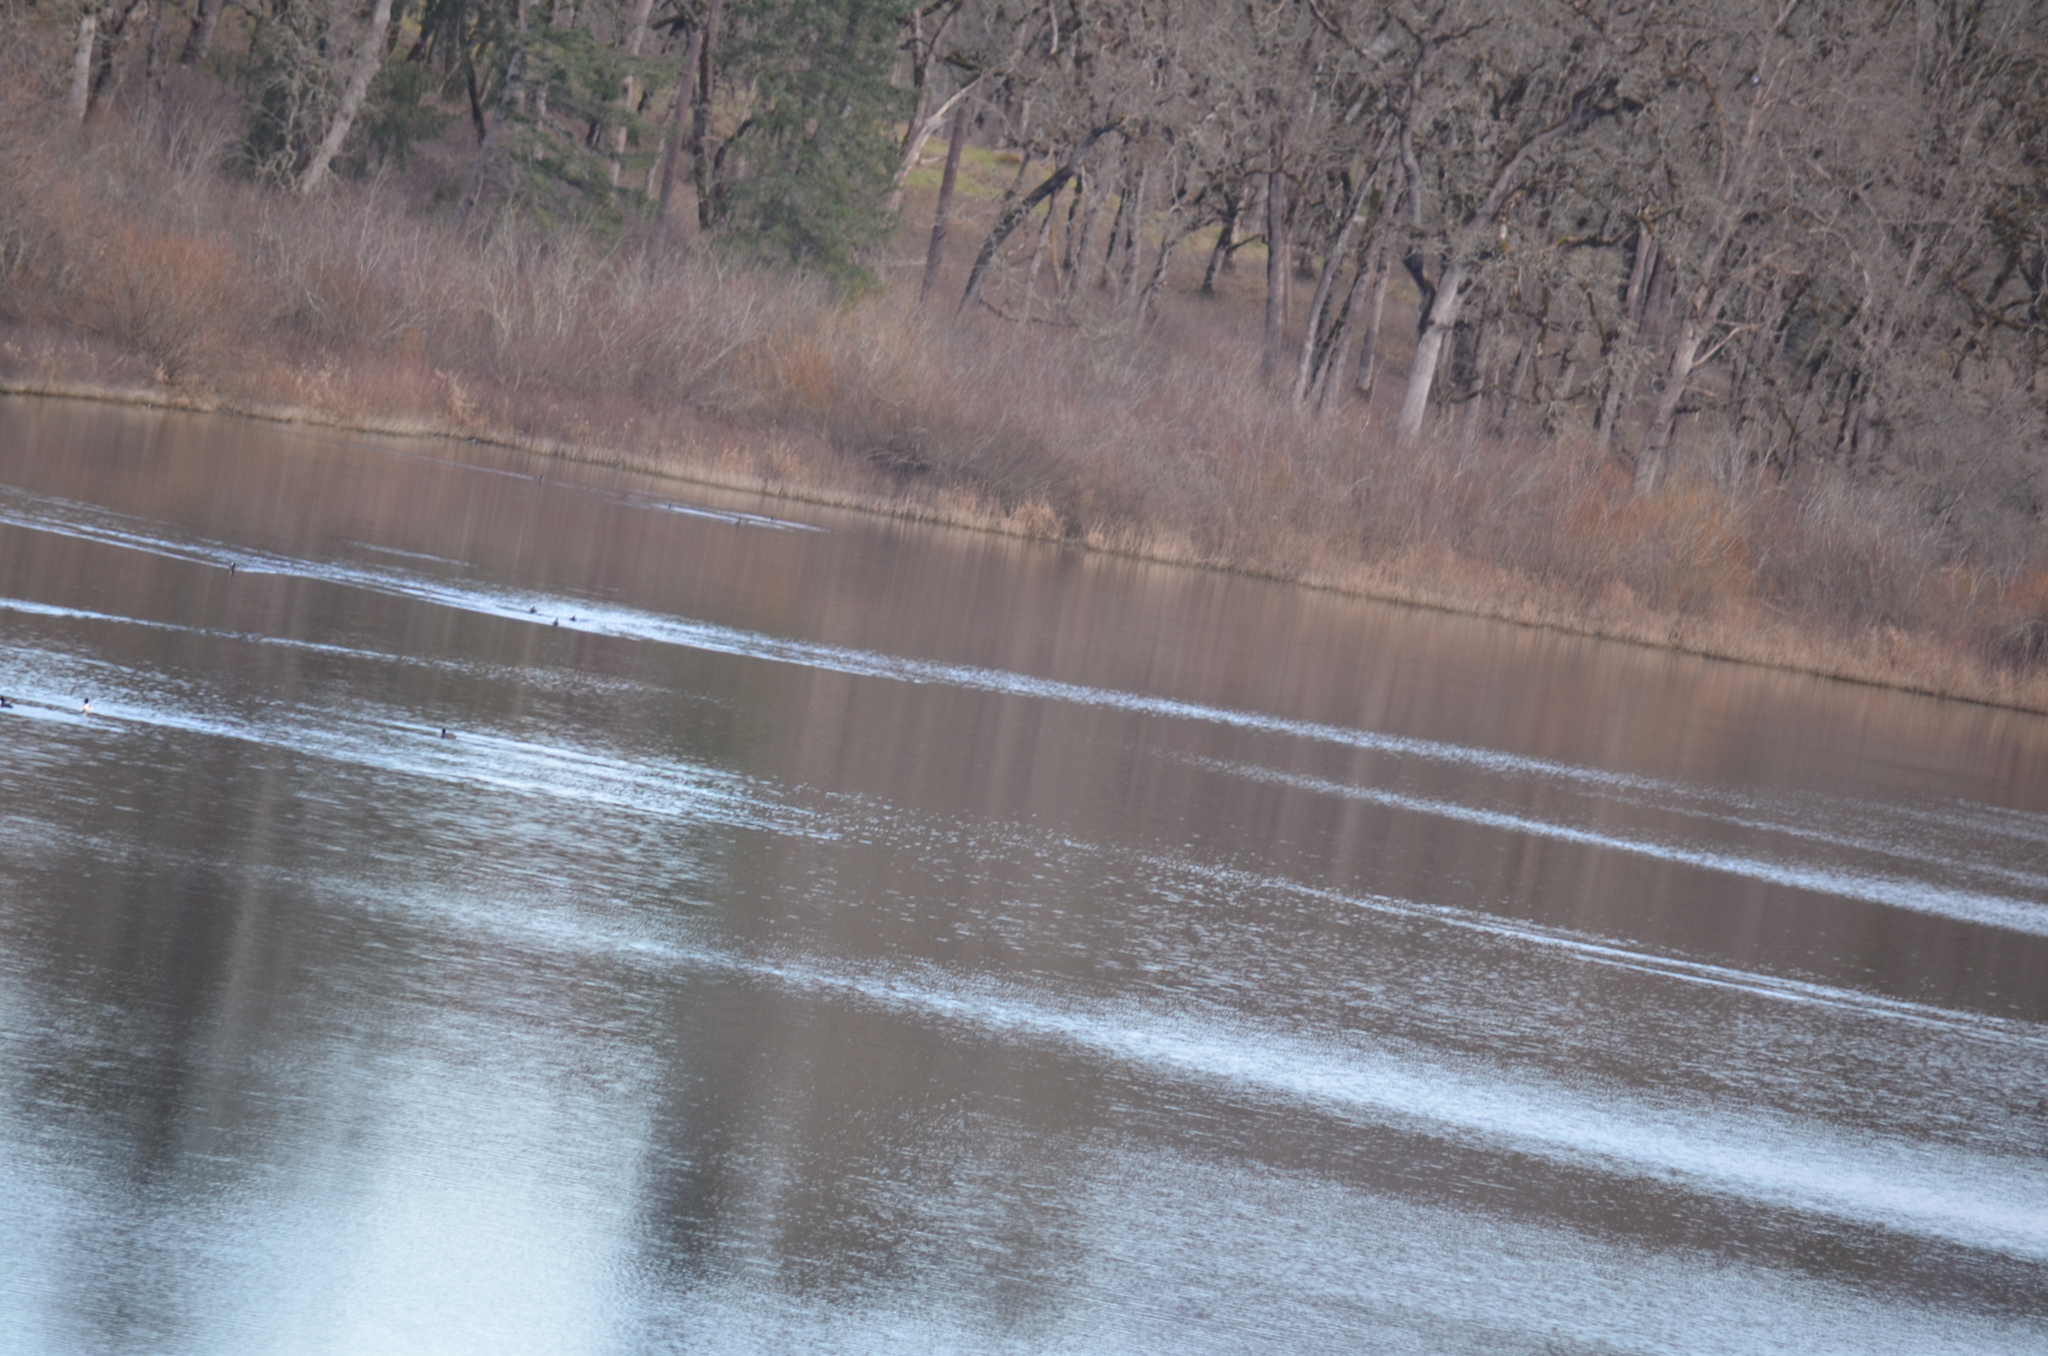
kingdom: Animalia
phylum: Chordata
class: Aves
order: Gruiformes
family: Rallidae
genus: Fulica
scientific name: Fulica americana
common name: American coot
